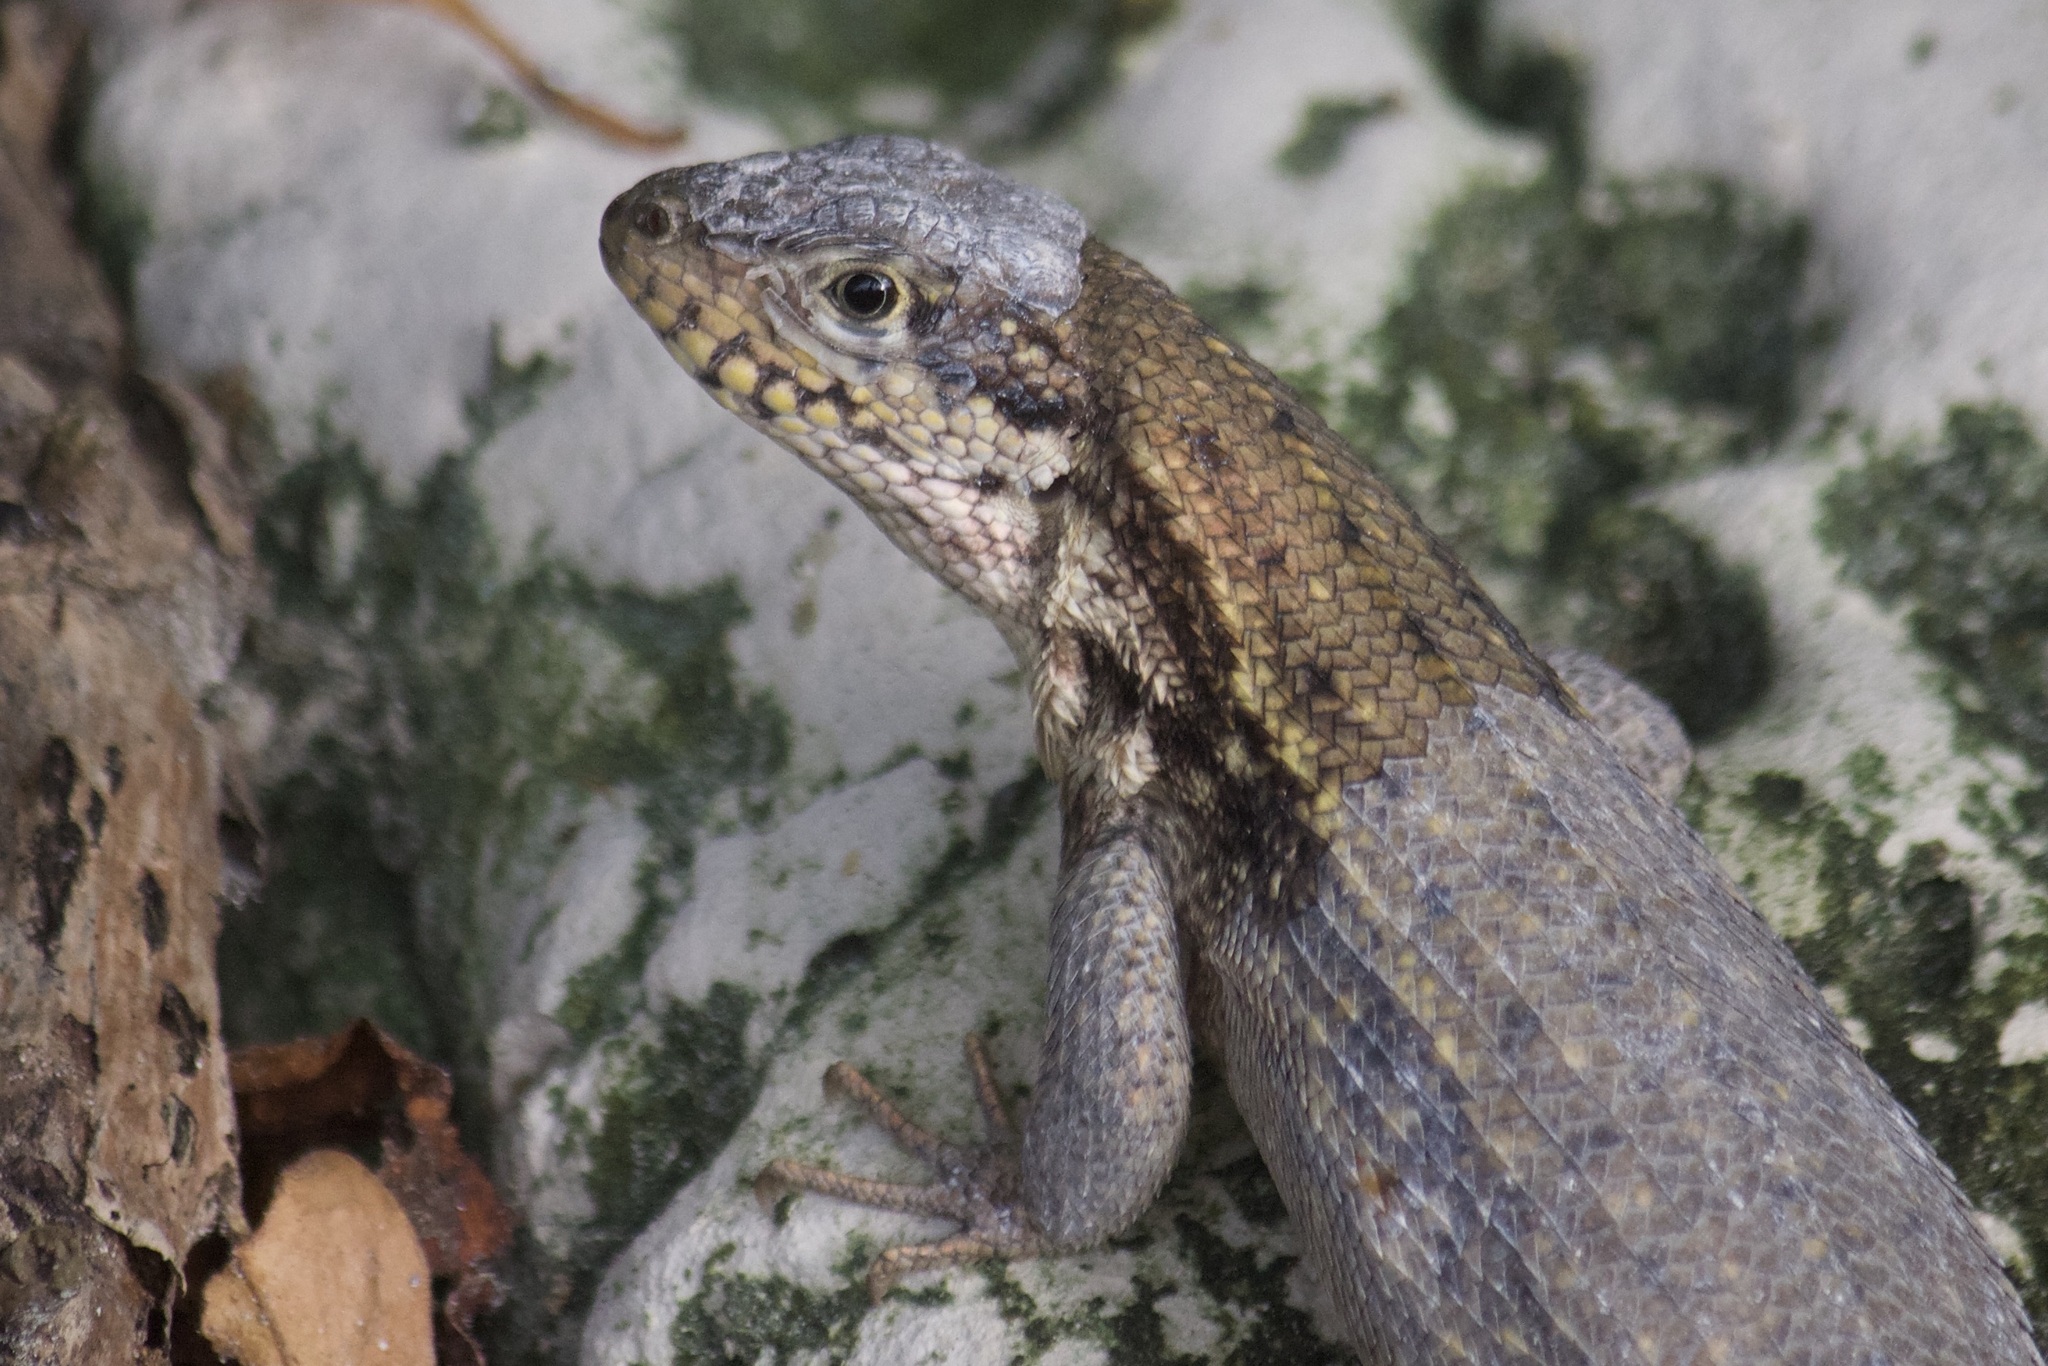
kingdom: Animalia
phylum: Chordata
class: Squamata
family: Leiocephalidae
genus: Leiocephalus
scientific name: Leiocephalus carinatus
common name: Northern curly-tailed lizard
